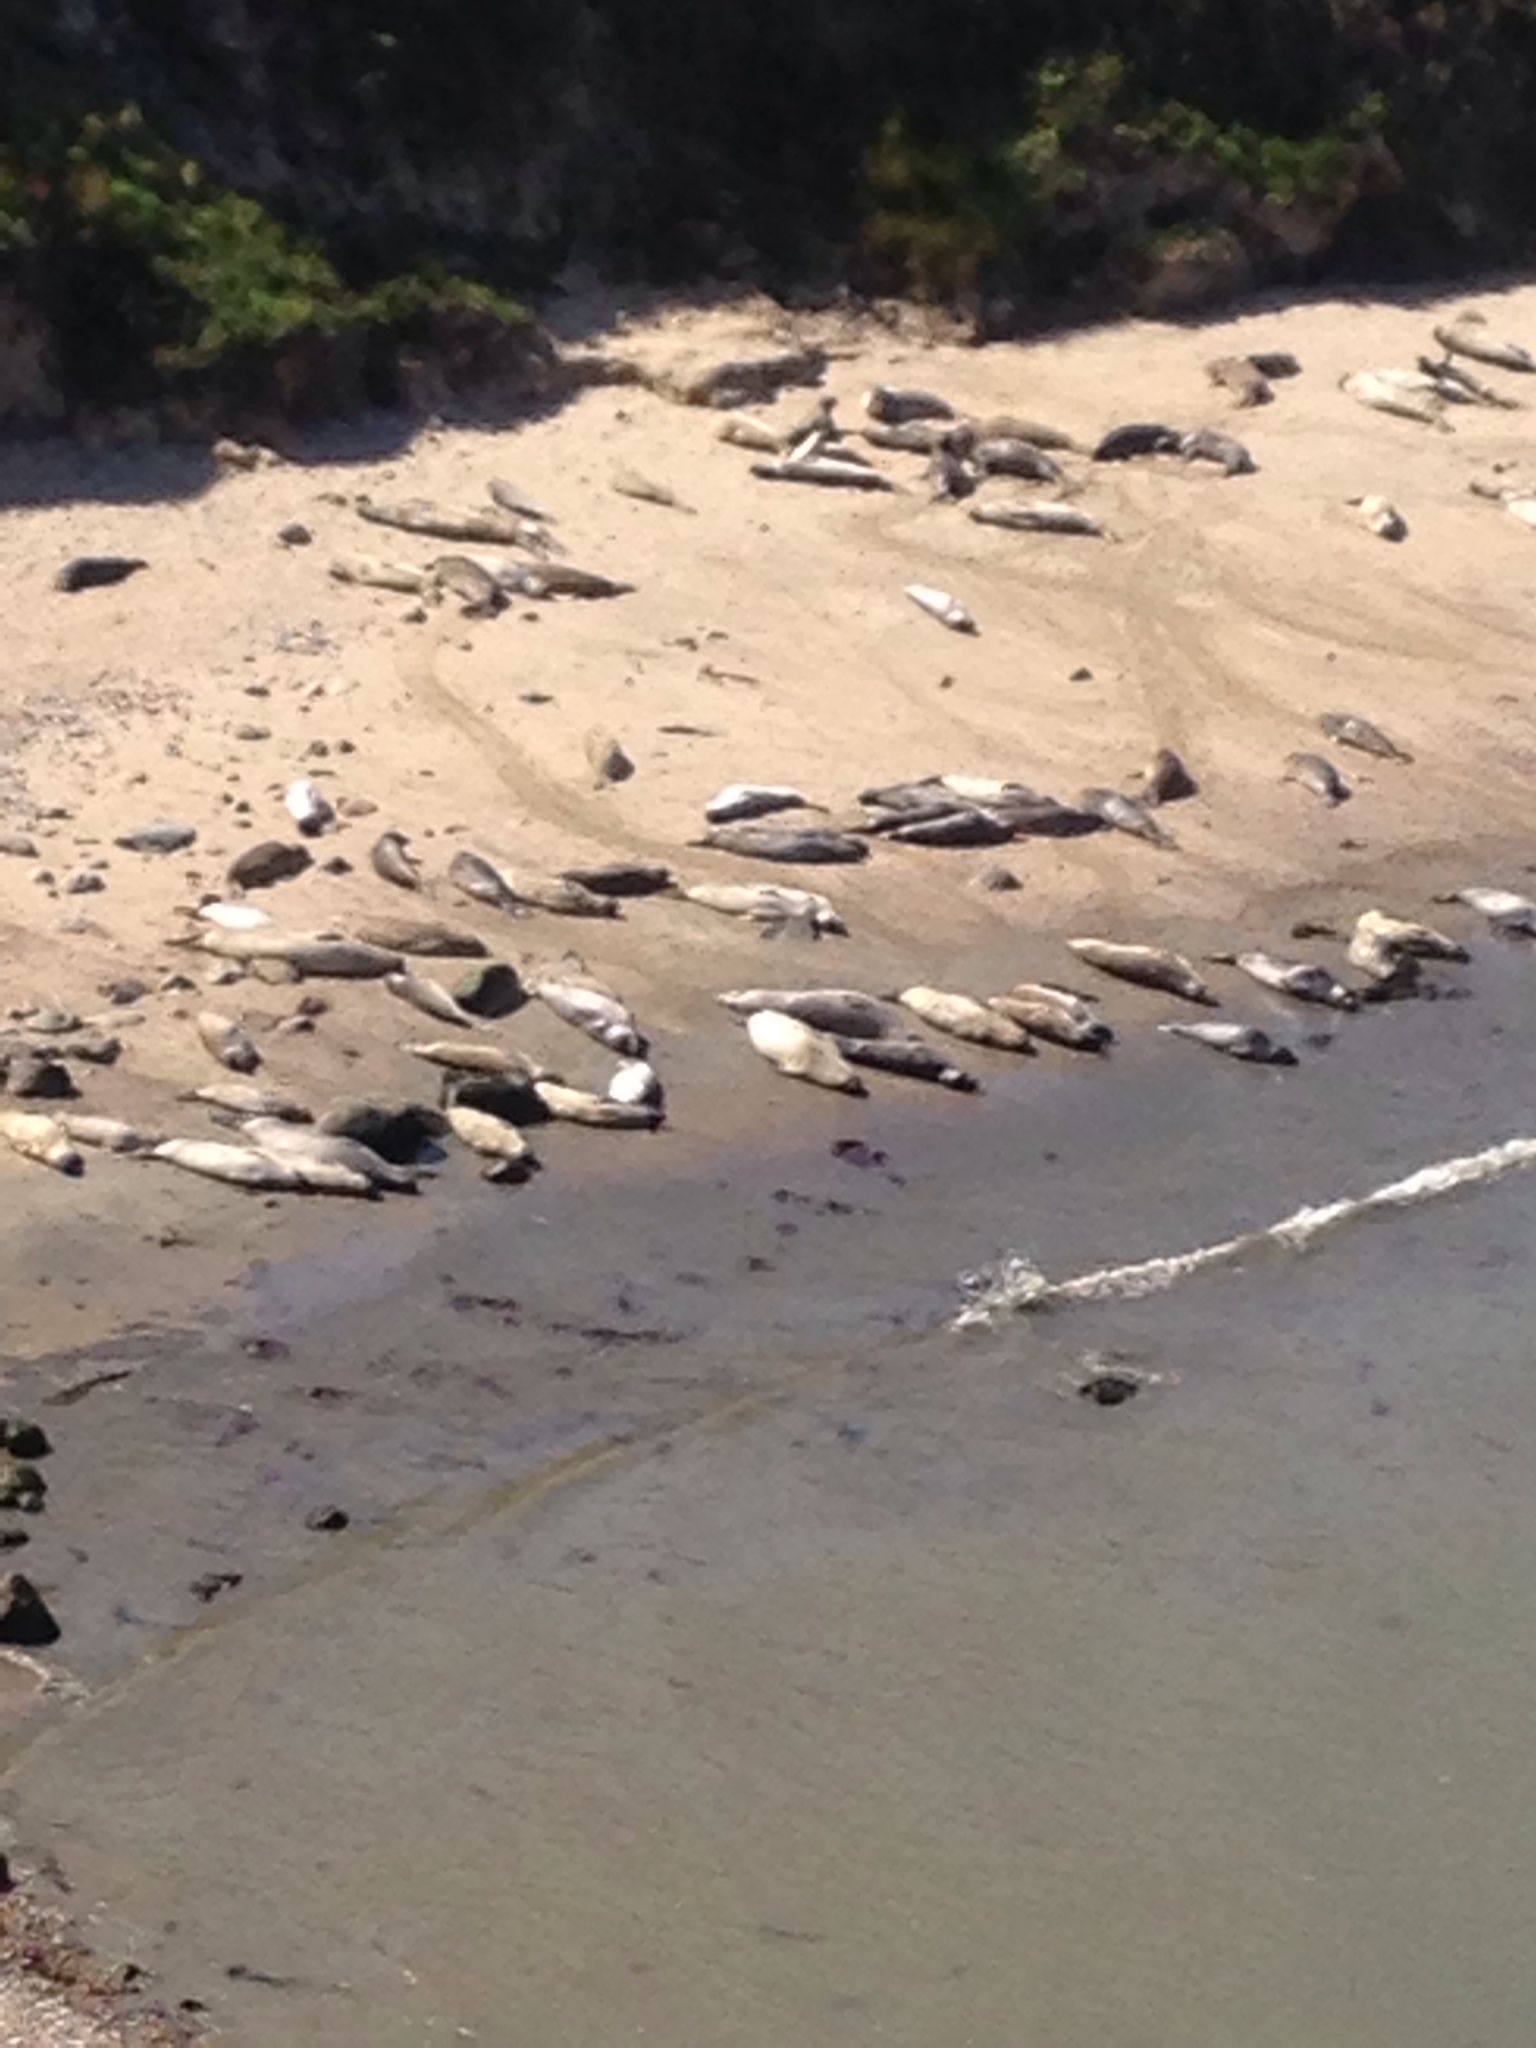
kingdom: Animalia
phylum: Chordata
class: Mammalia
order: Carnivora
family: Phocidae
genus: Mirounga
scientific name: Mirounga angustirostris
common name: Northern elephant seal
